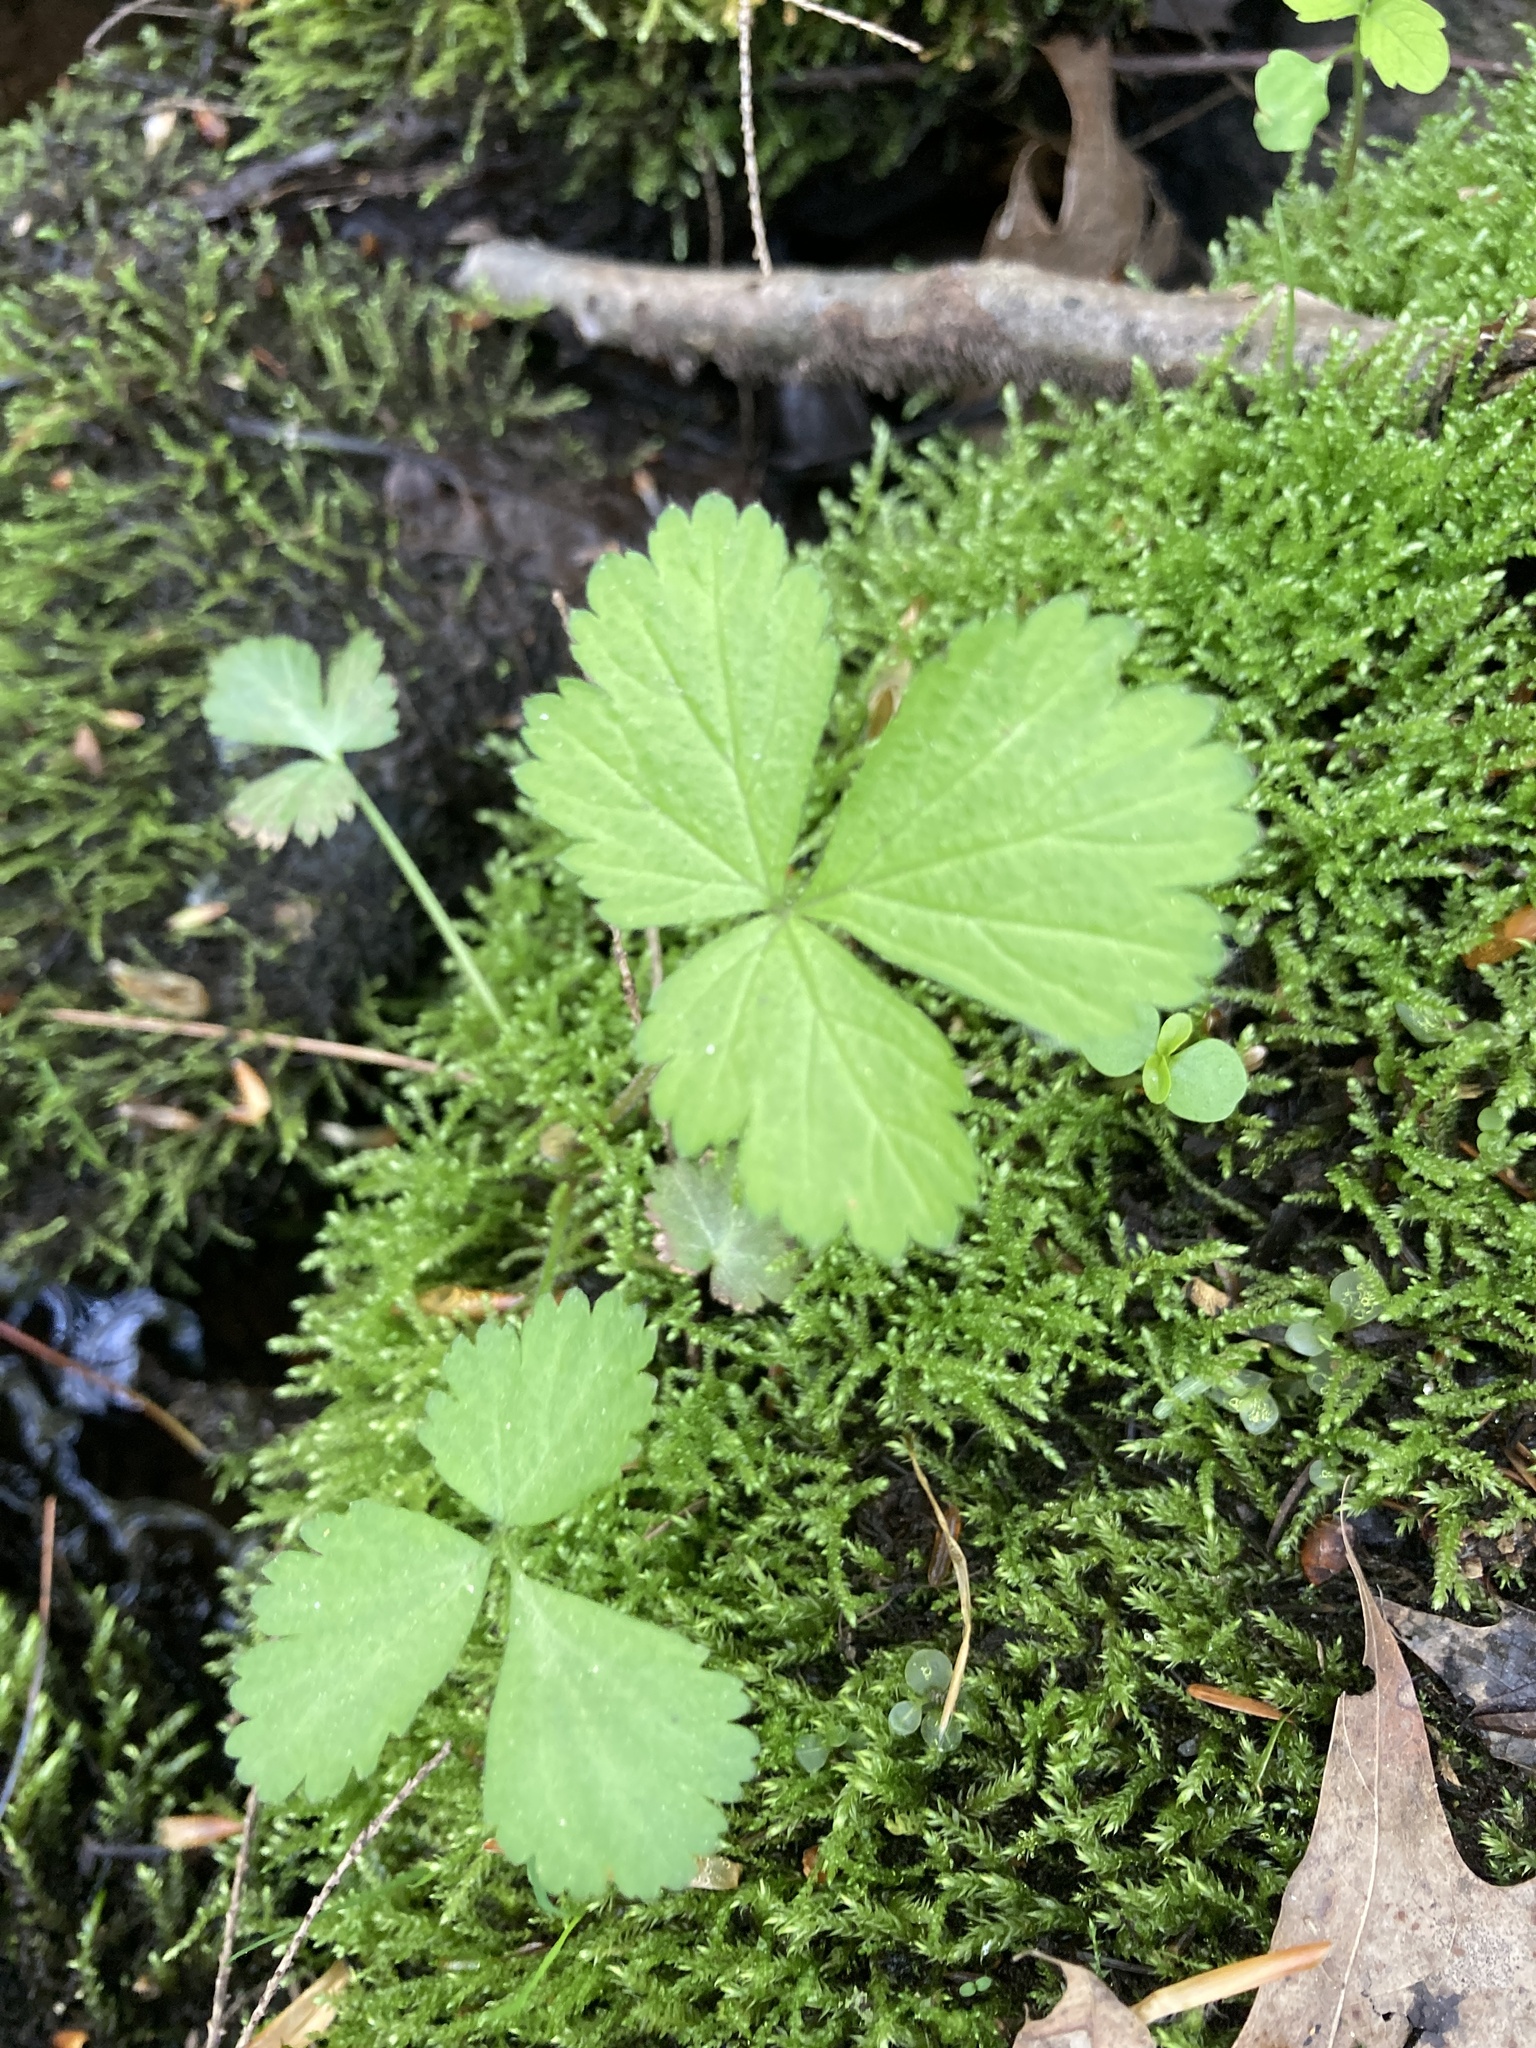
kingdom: Plantae
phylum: Tracheophyta
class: Magnoliopsida
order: Ranunculales
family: Ranunculaceae
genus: Coptis
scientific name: Coptis trifolia
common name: Canker-root
